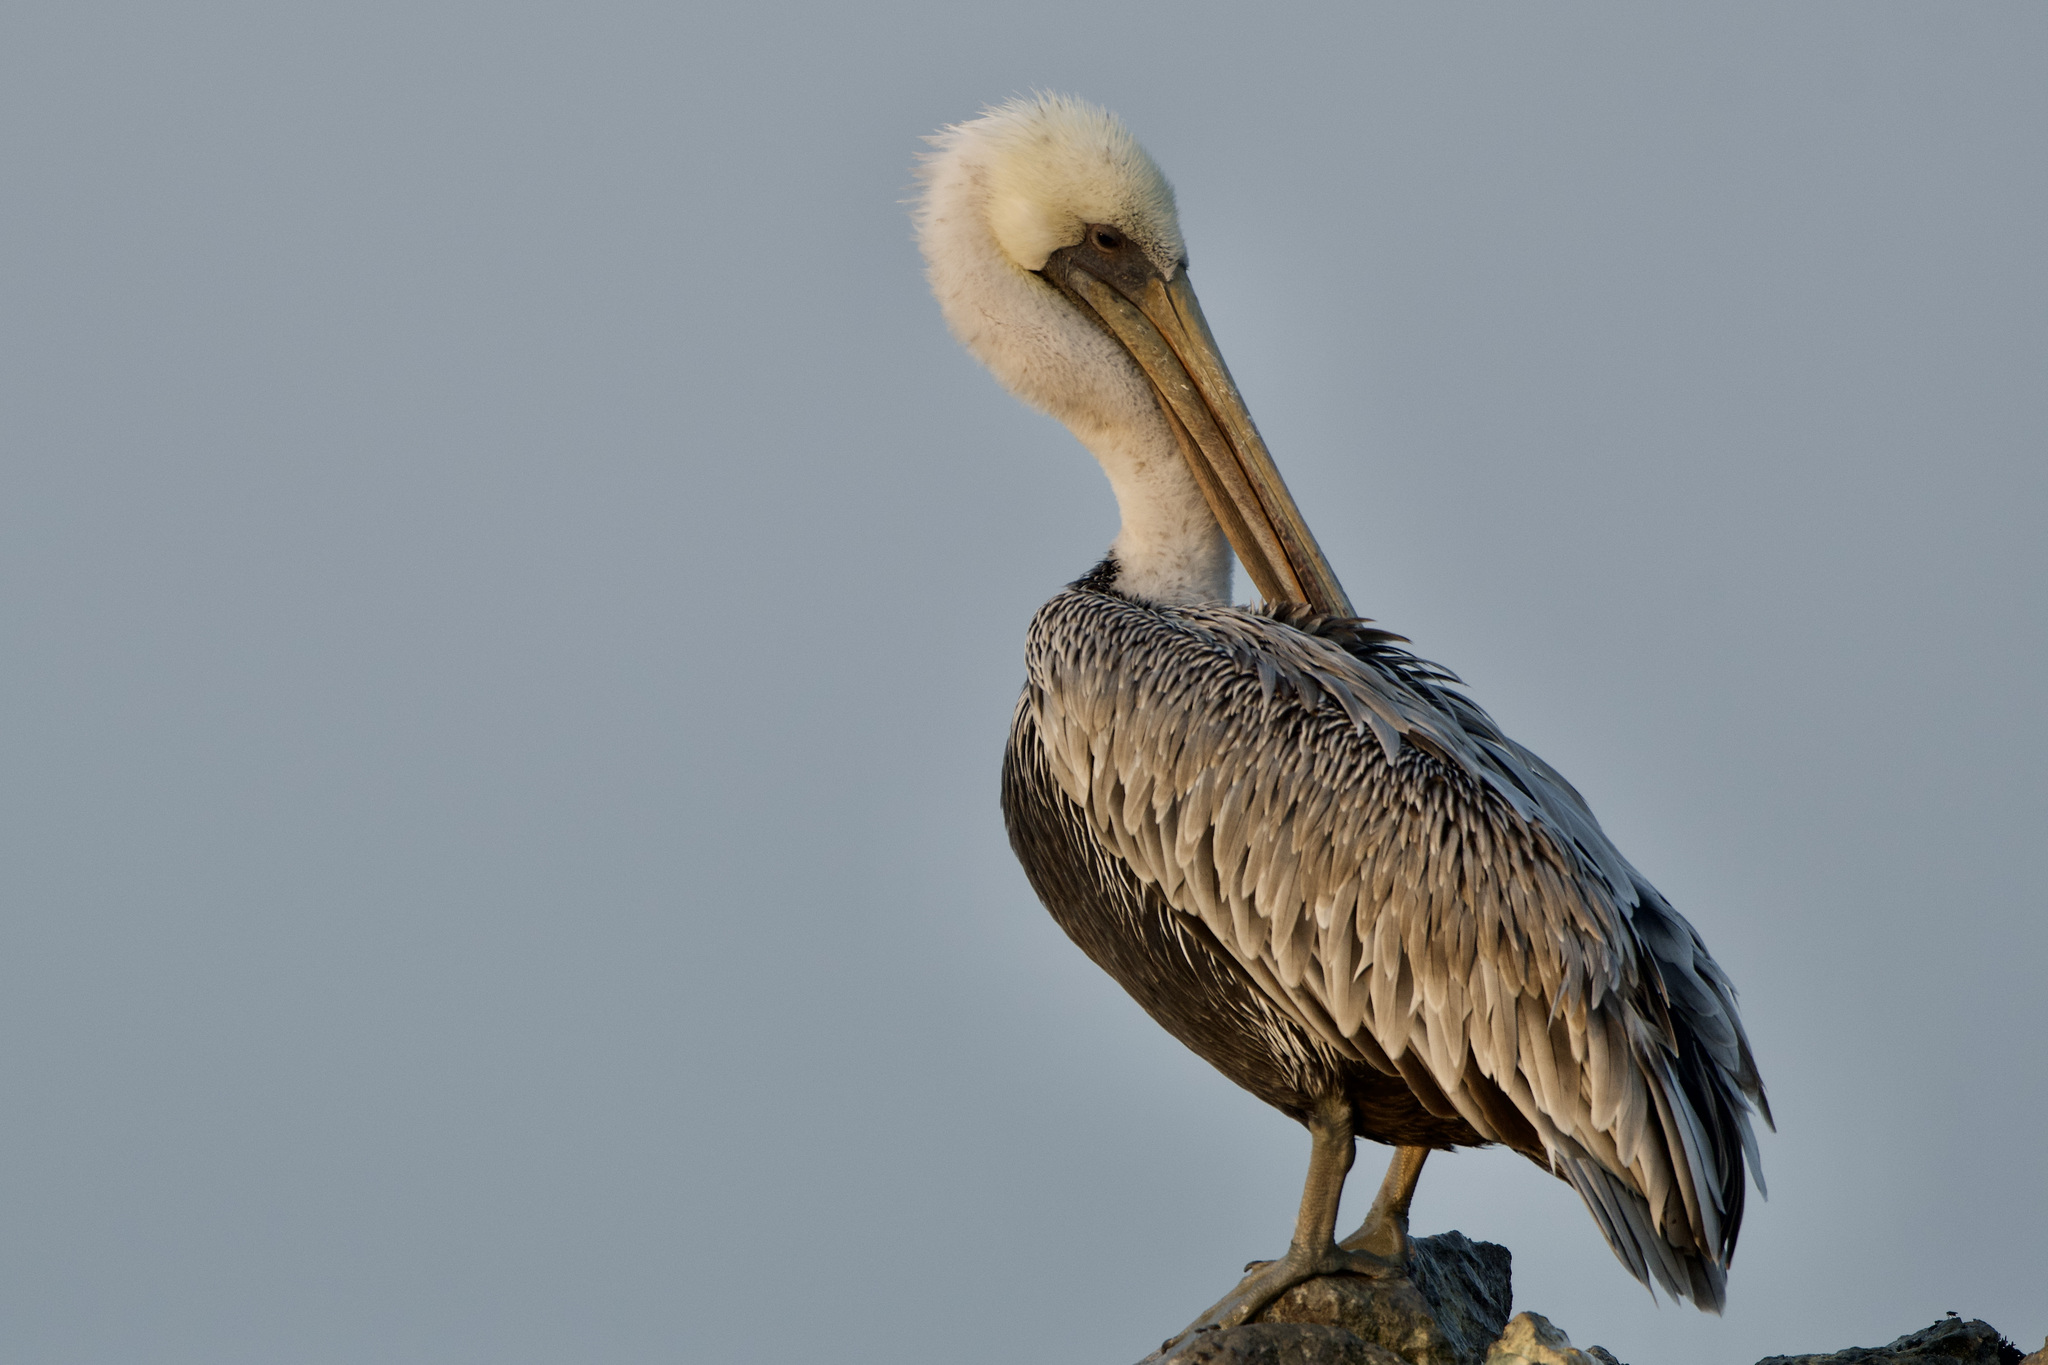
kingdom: Animalia
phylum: Chordata
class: Aves
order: Pelecaniformes
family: Pelecanidae
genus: Pelecanus
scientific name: Pelecanus occidentalis
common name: Brown pelican
